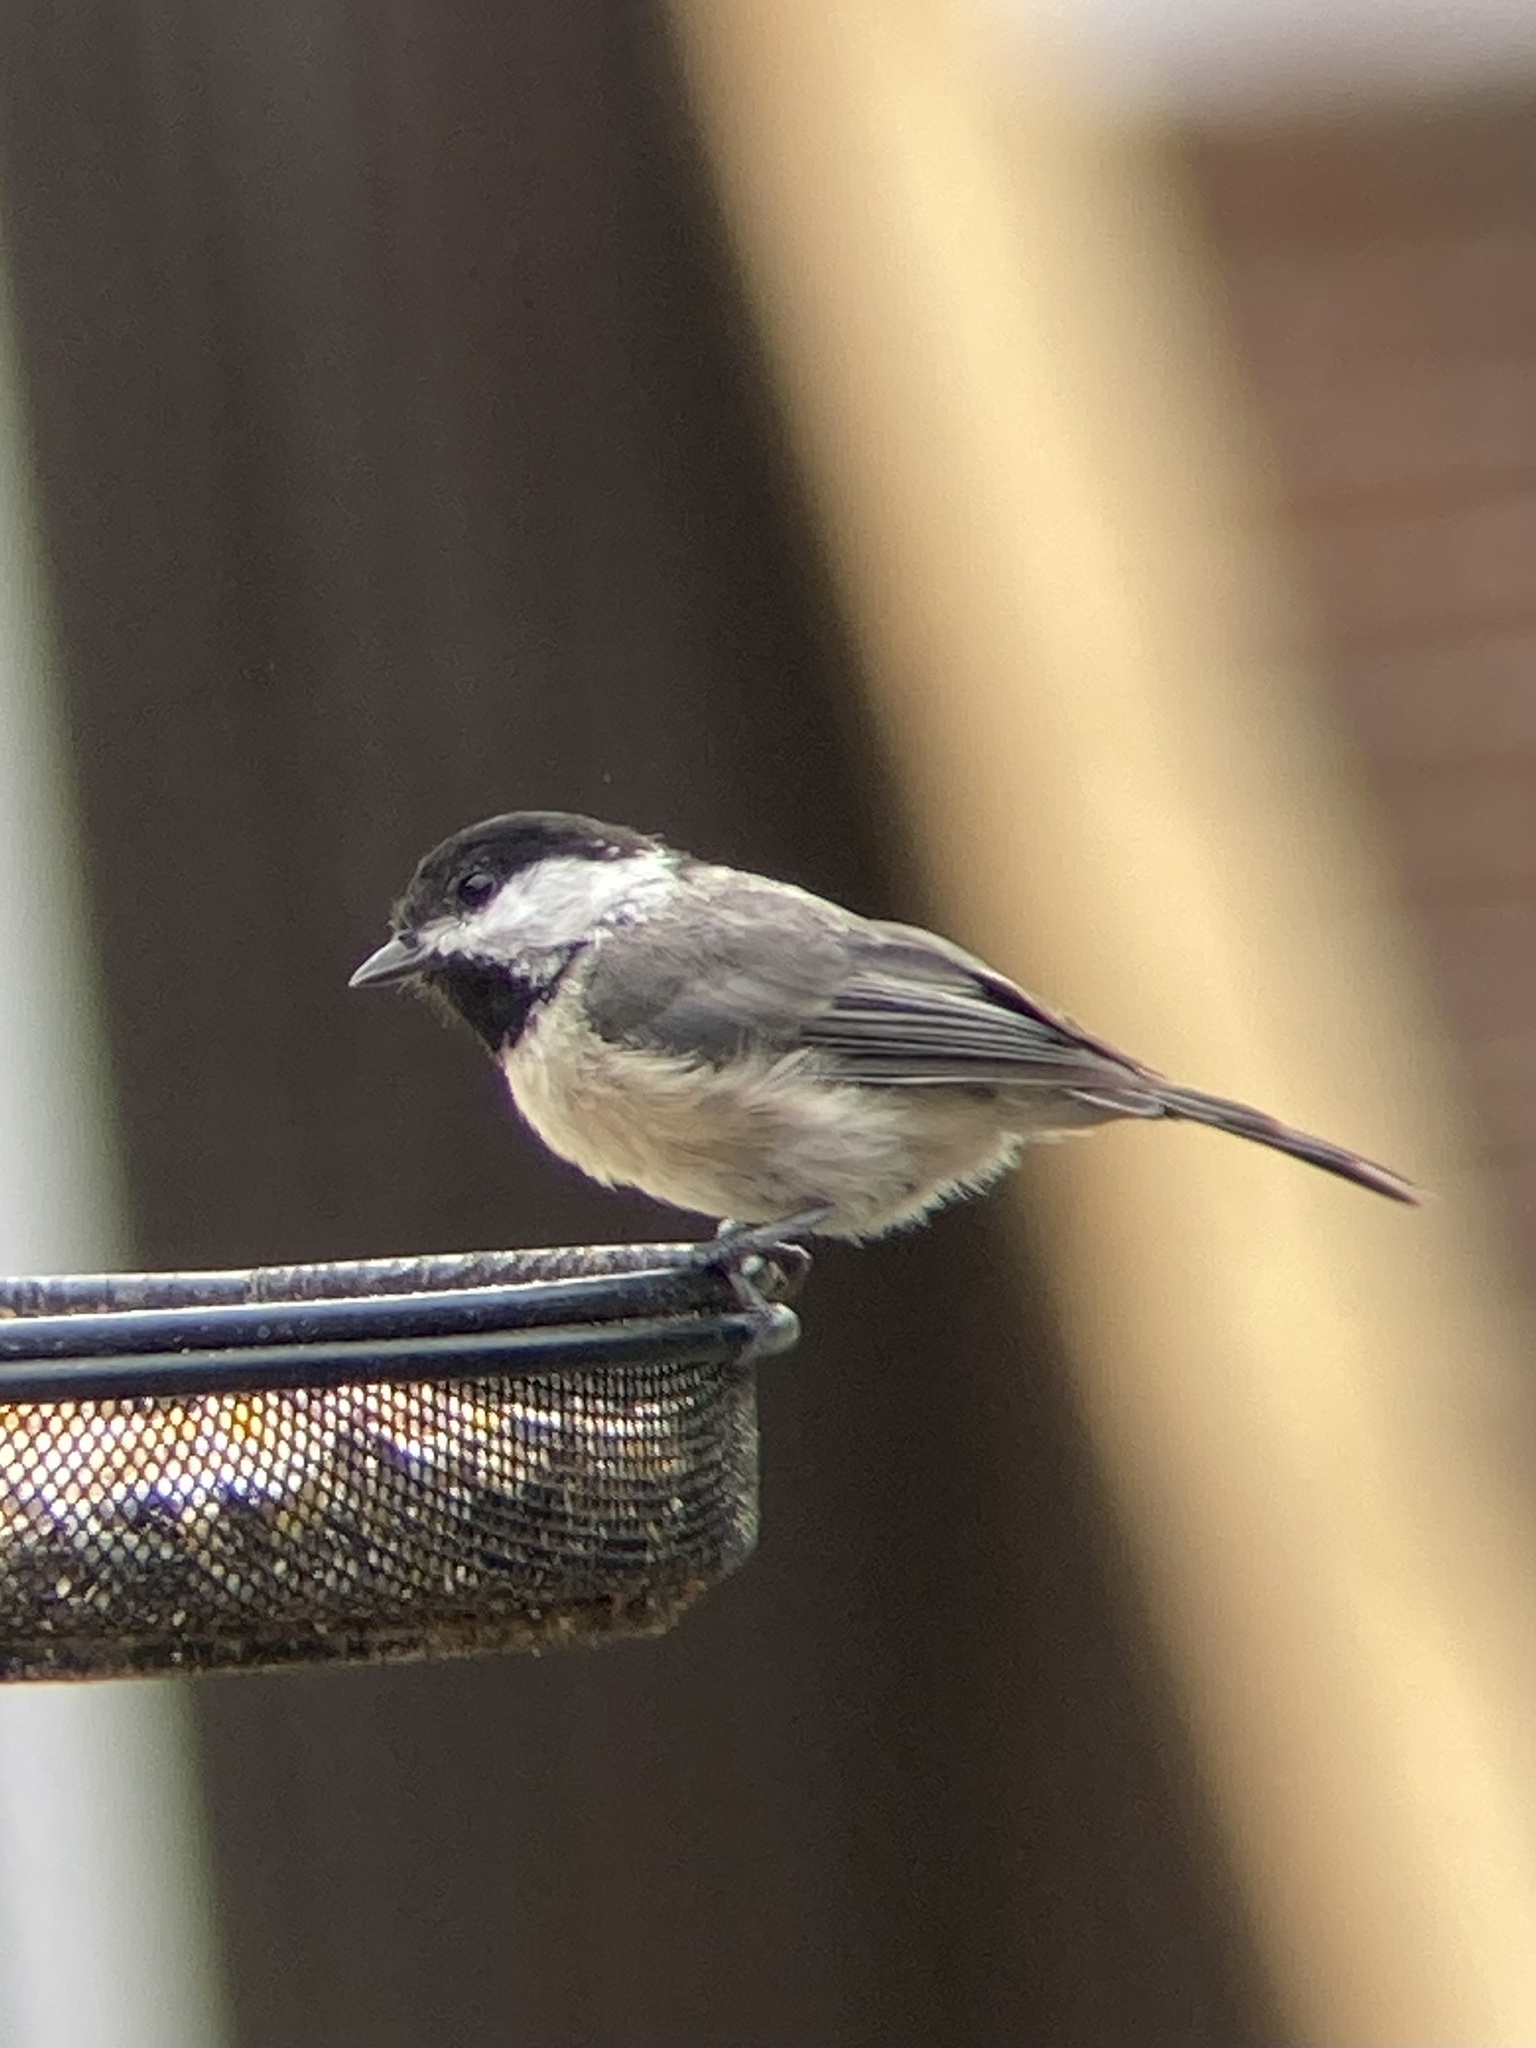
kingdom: Animalia
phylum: Chordata
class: Aves
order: Passeriformes
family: Paridae
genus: Poecile
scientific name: Poecile carolinensis
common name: Carolina chickadee
